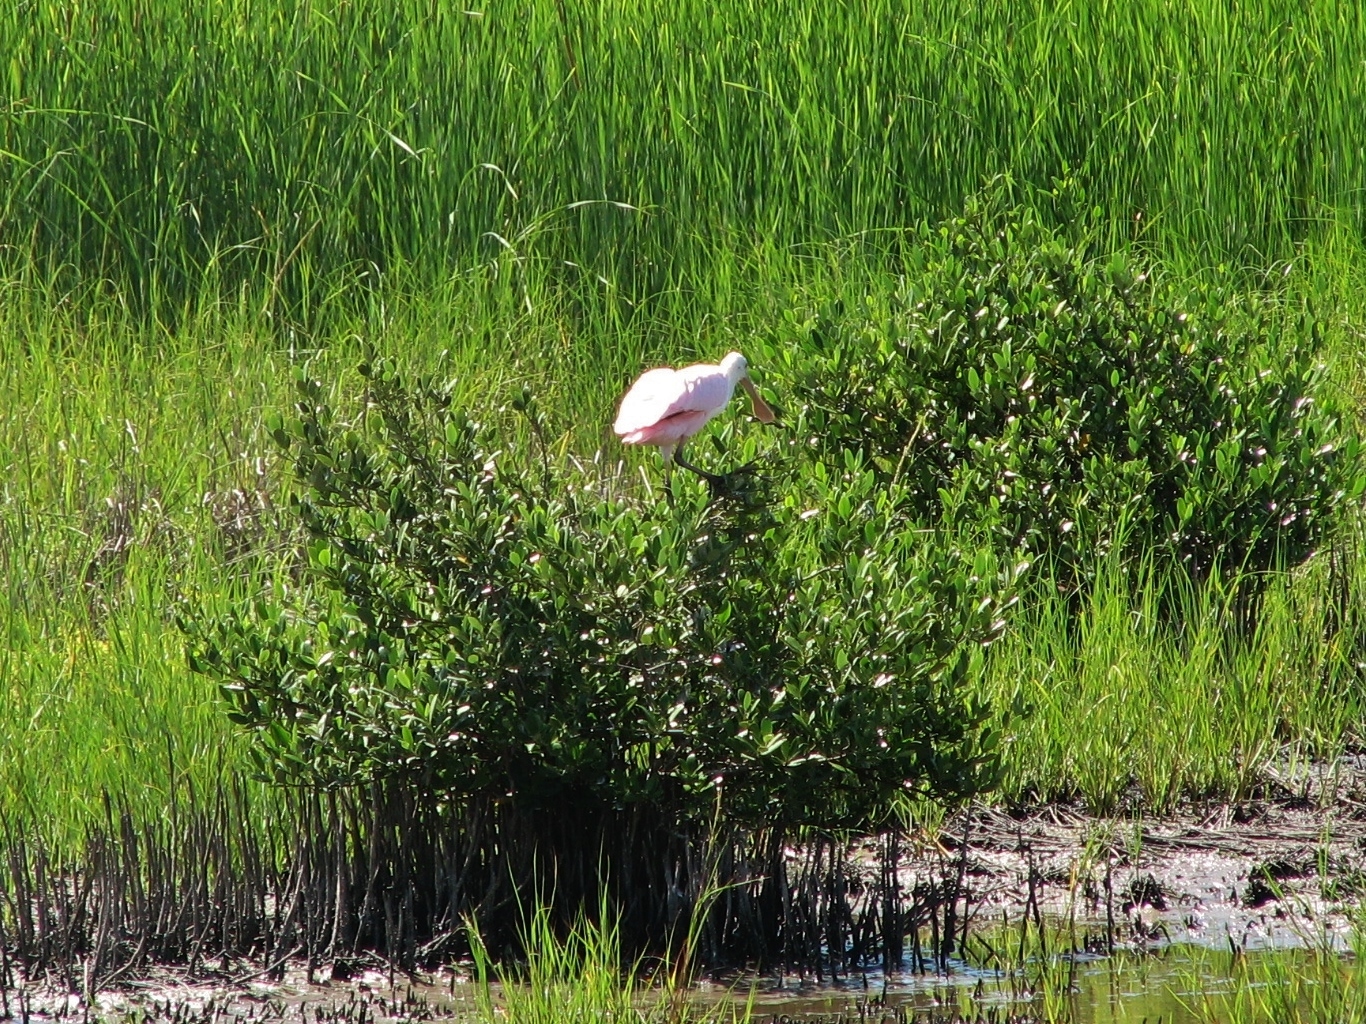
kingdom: Animalia
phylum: Chordata
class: Aves
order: Pelecaniformes
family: Threskiornithidae
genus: Platalea
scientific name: Platalea ajaja
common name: Roseate spoonbill
